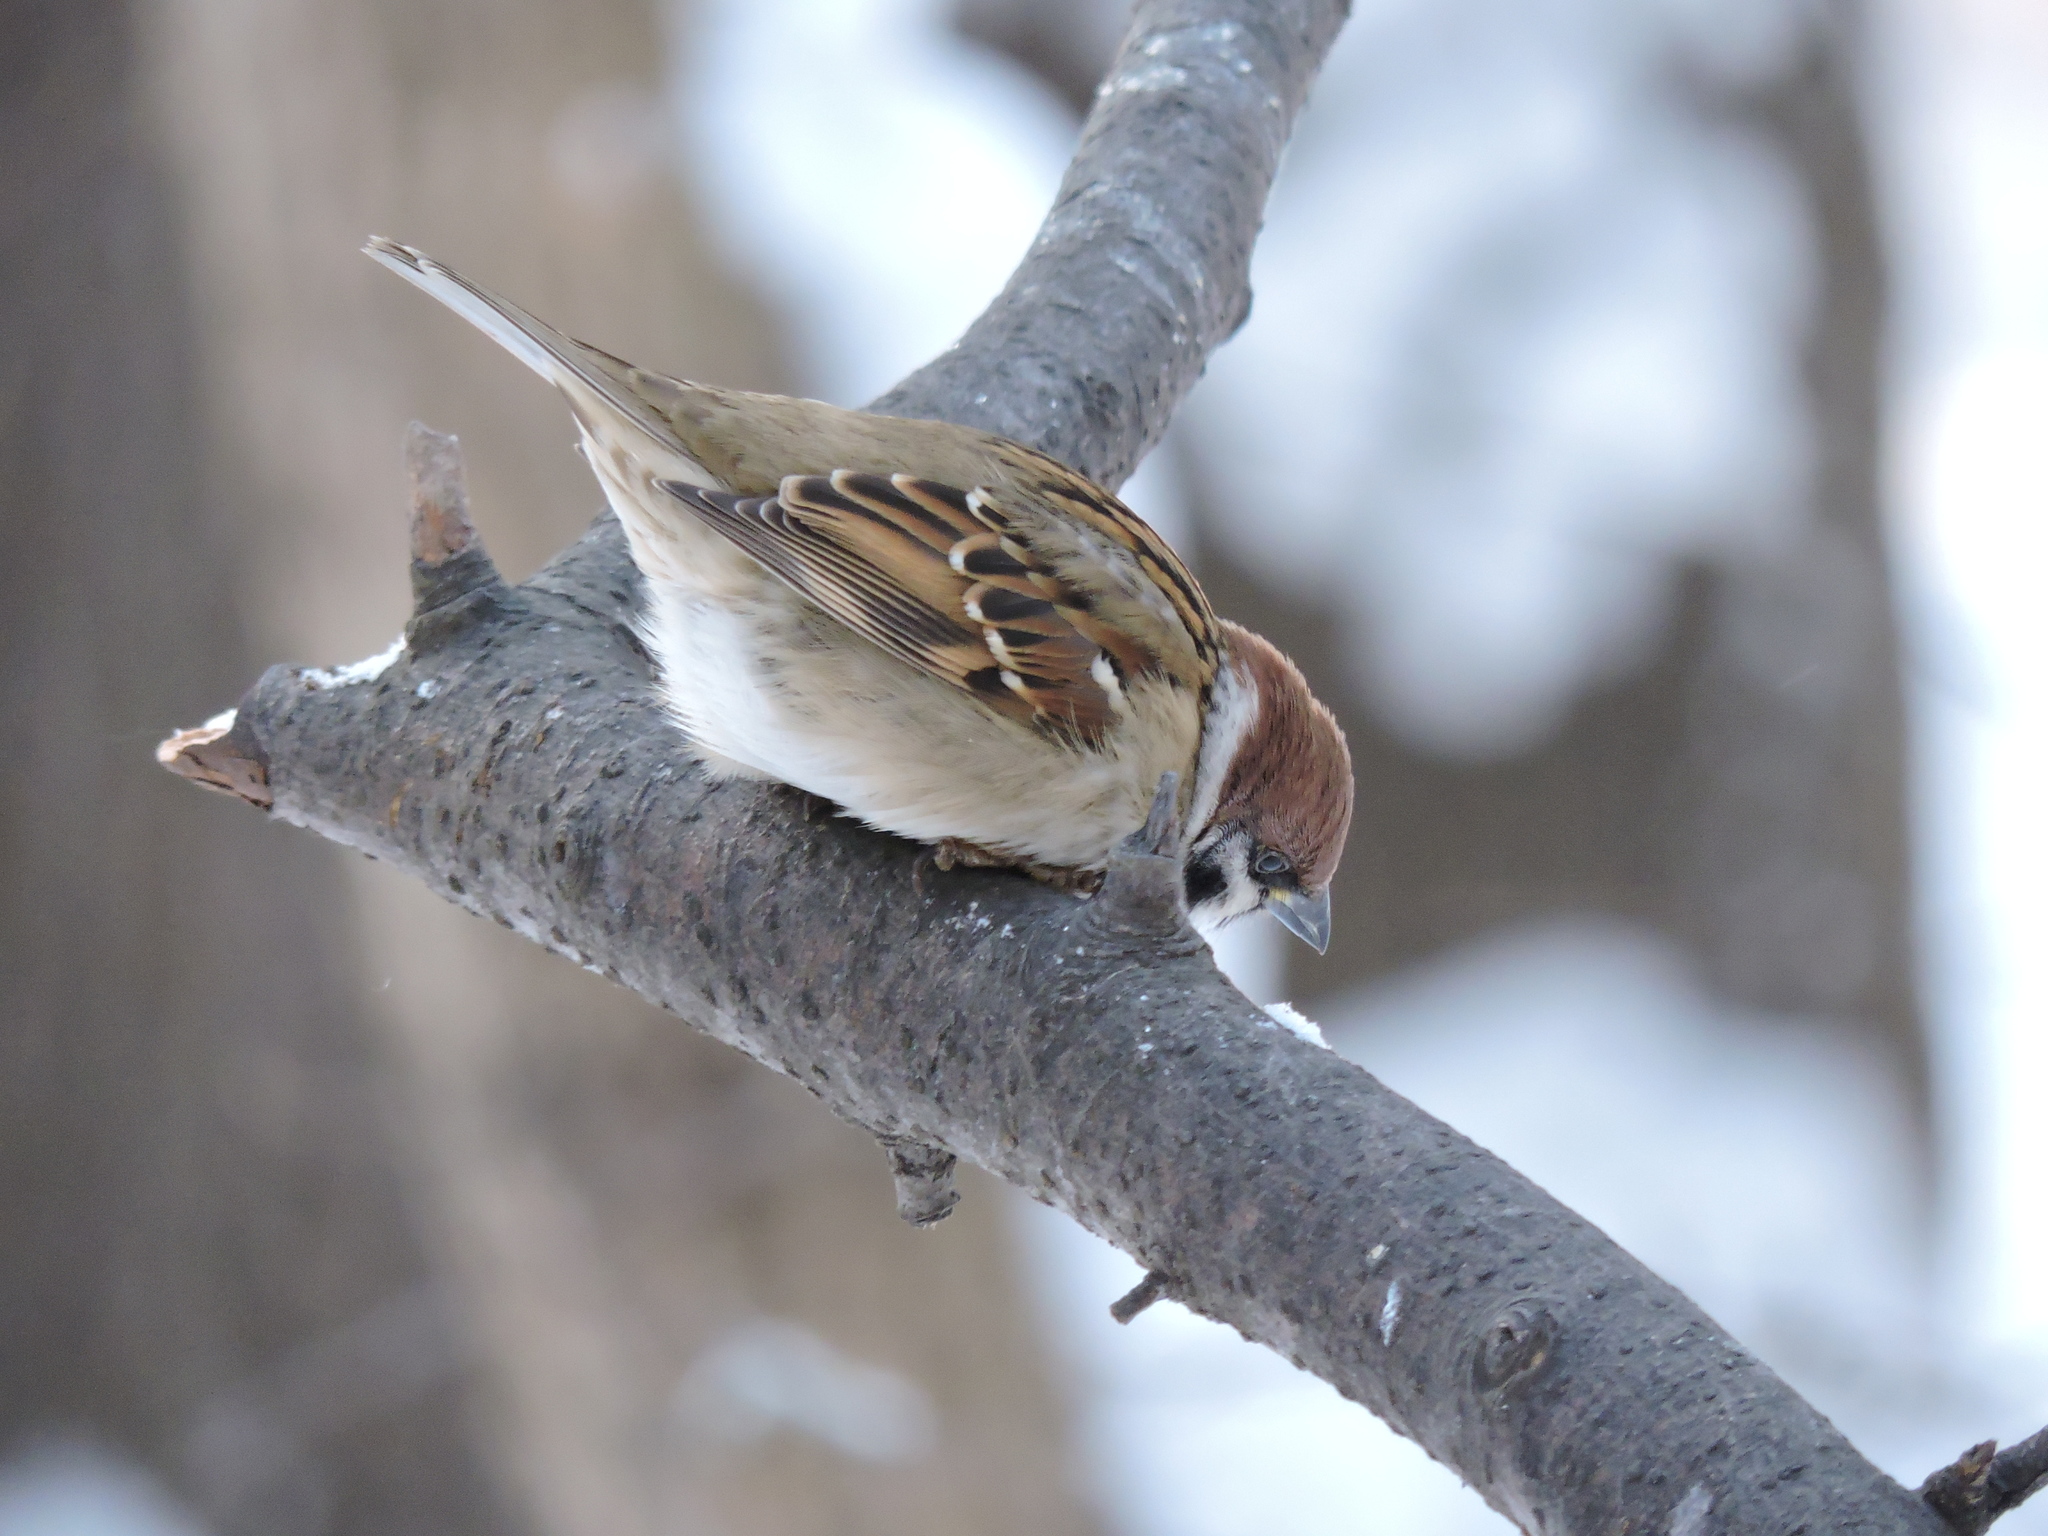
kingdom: Animalia
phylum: Chordata
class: Aves
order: Passeriformes
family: Passeridae
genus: Passer
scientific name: Passer montanus
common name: Eurasian tree sparrow
